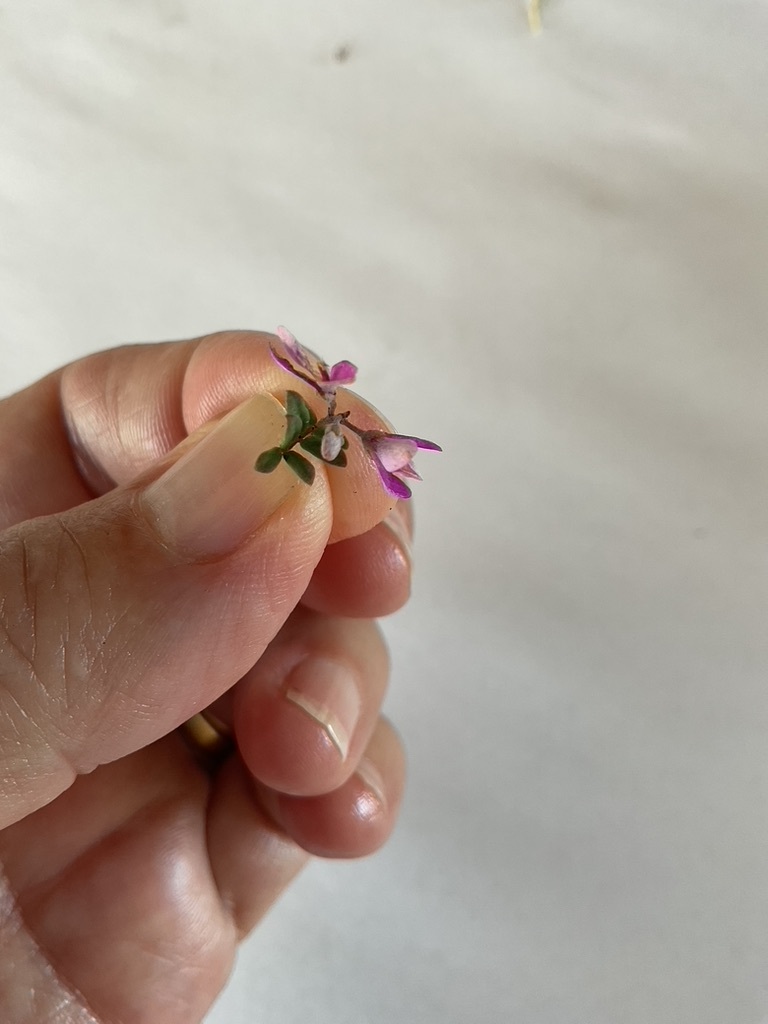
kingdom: Plantae
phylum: Tracheophyta
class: Magnoliopsida
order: Fabales
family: Fabaceae
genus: Indigofera
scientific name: Indigofera
